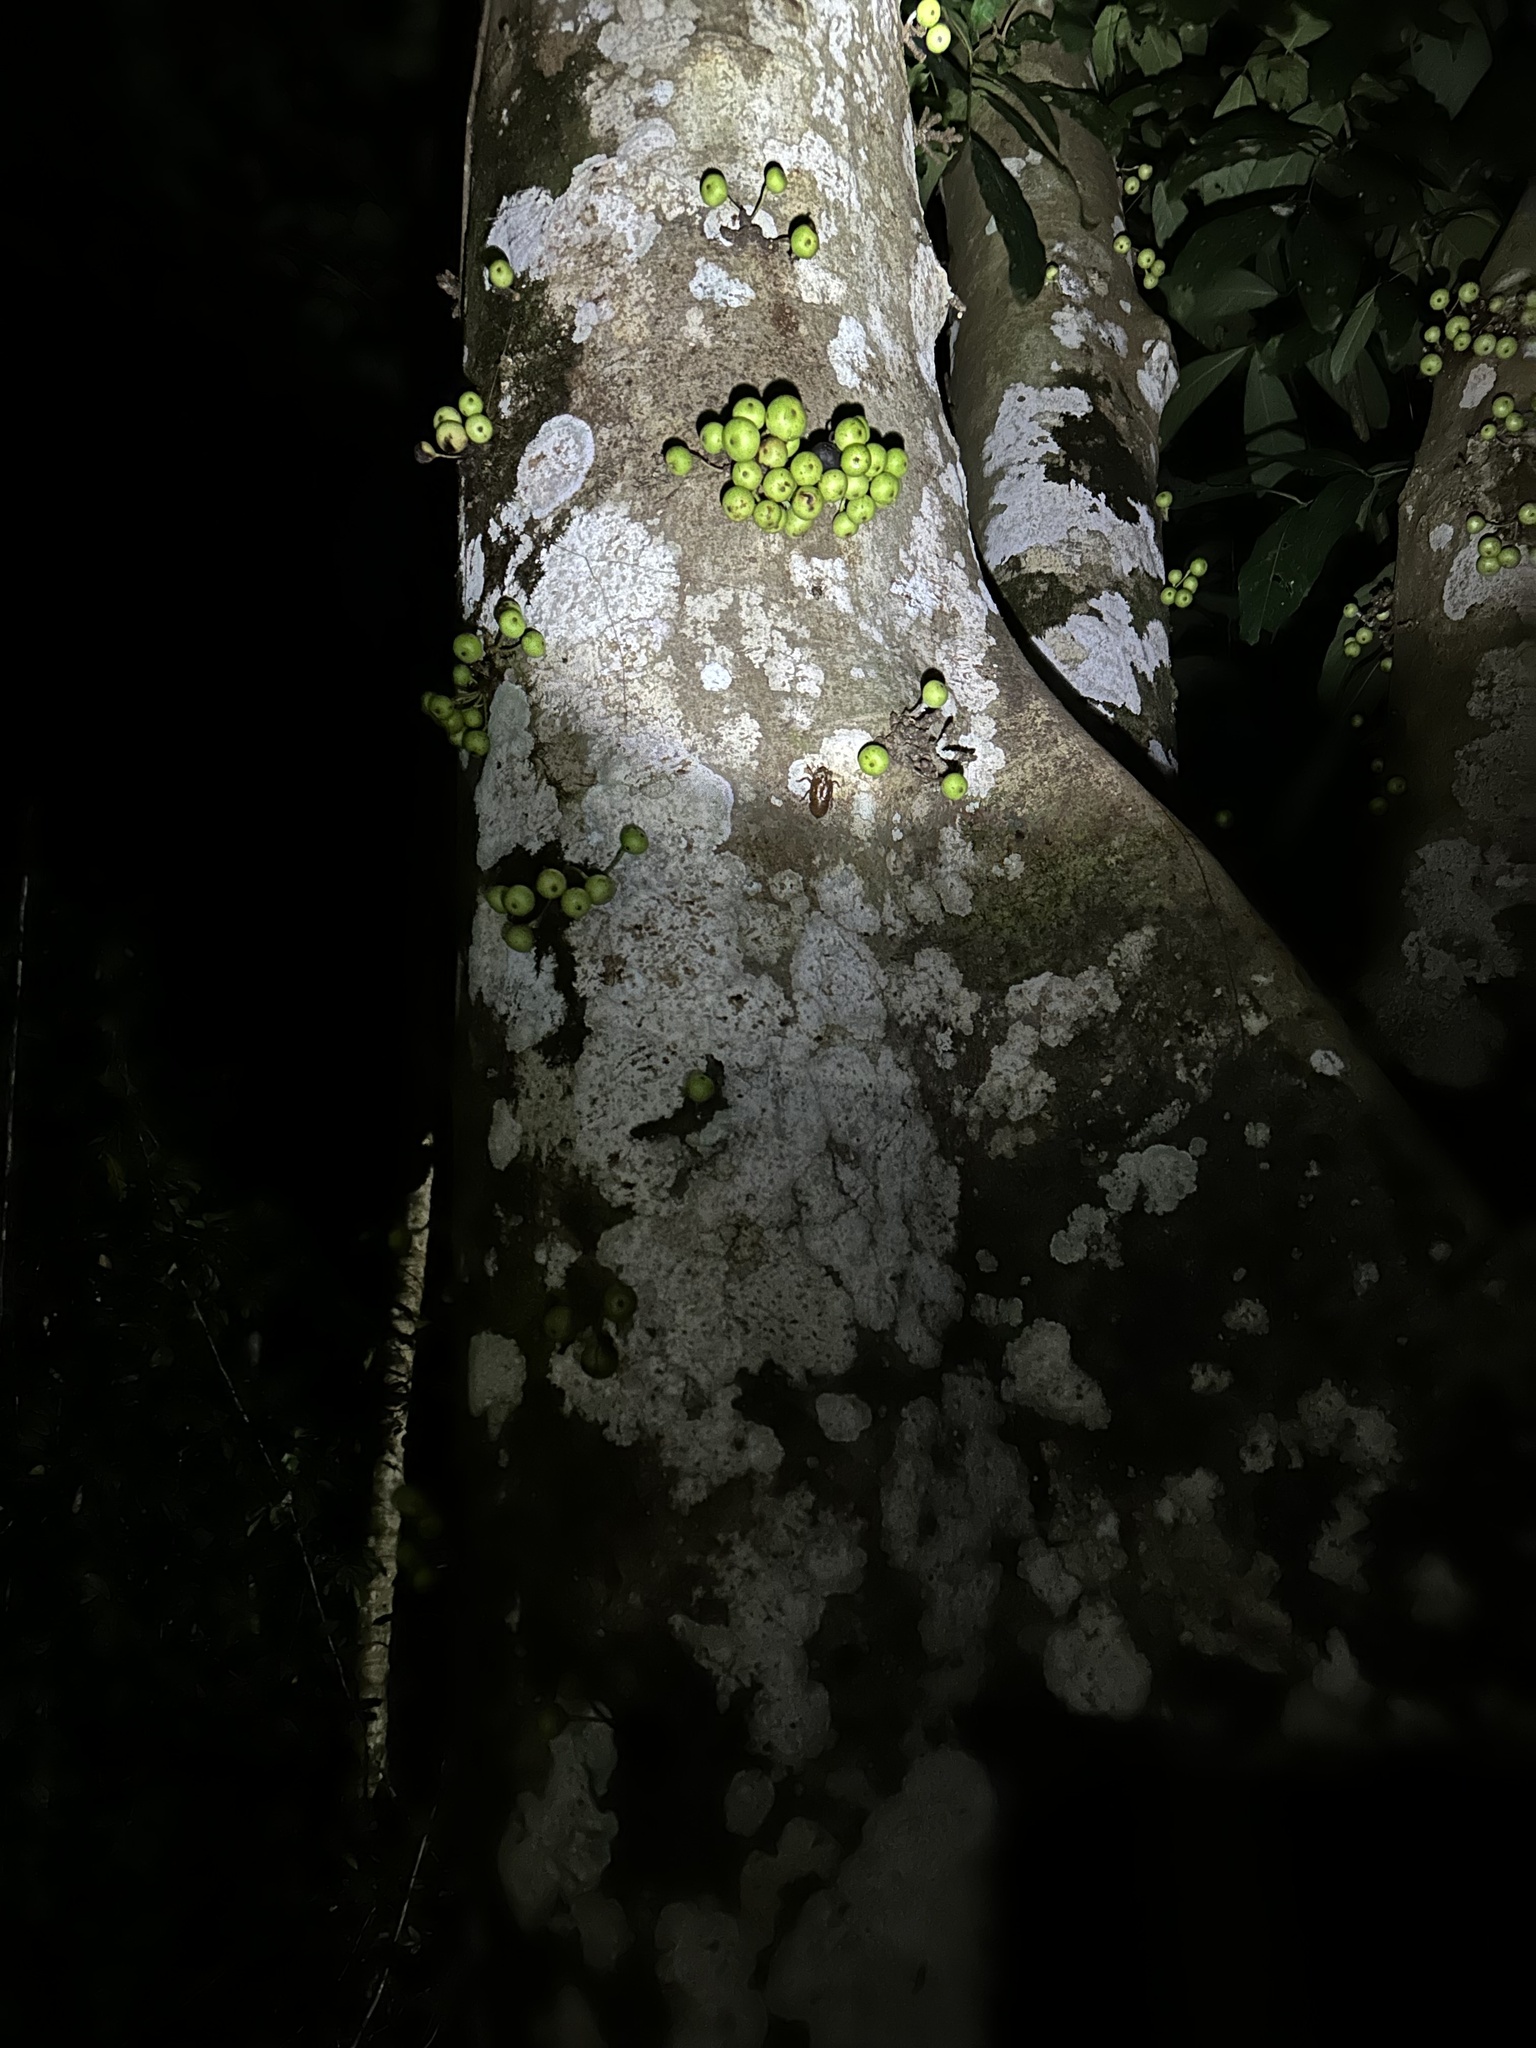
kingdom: Plantae
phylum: Tracheophyta
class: Magnoliopsida
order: Rosales
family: Moraceae
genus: Ficus
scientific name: Ficus variegata
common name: Variegated fig
